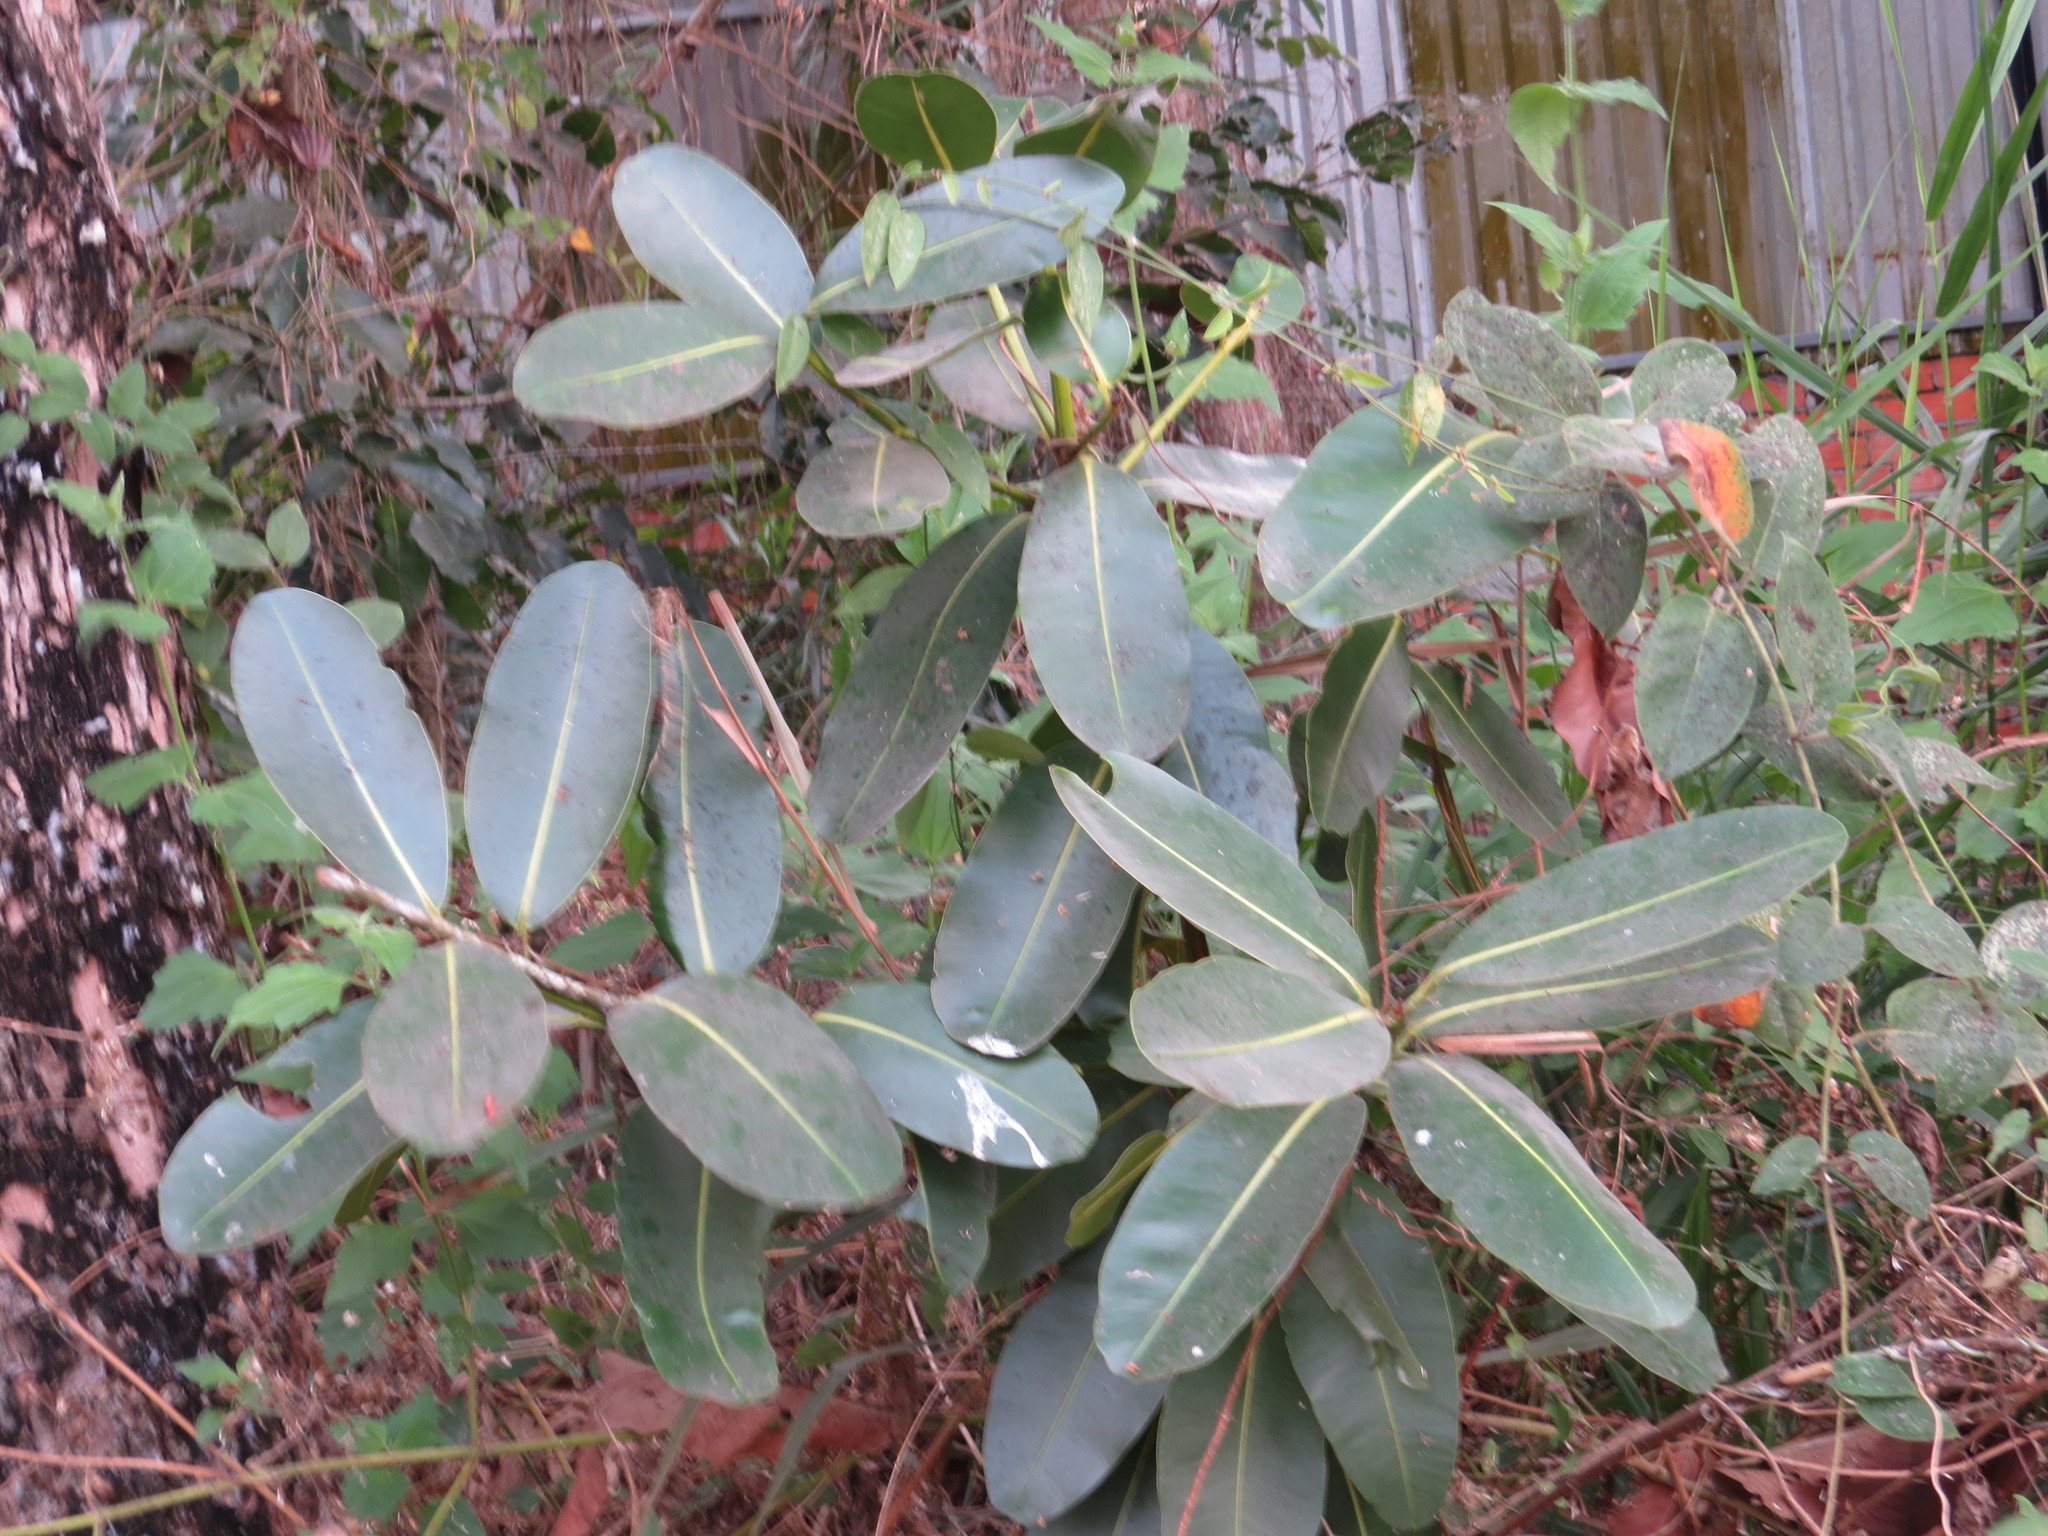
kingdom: Plantae
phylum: Tracheophyta
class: Magnoliopsida
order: Rosales
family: Moraceae
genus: Ficus
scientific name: Ficus elastica
